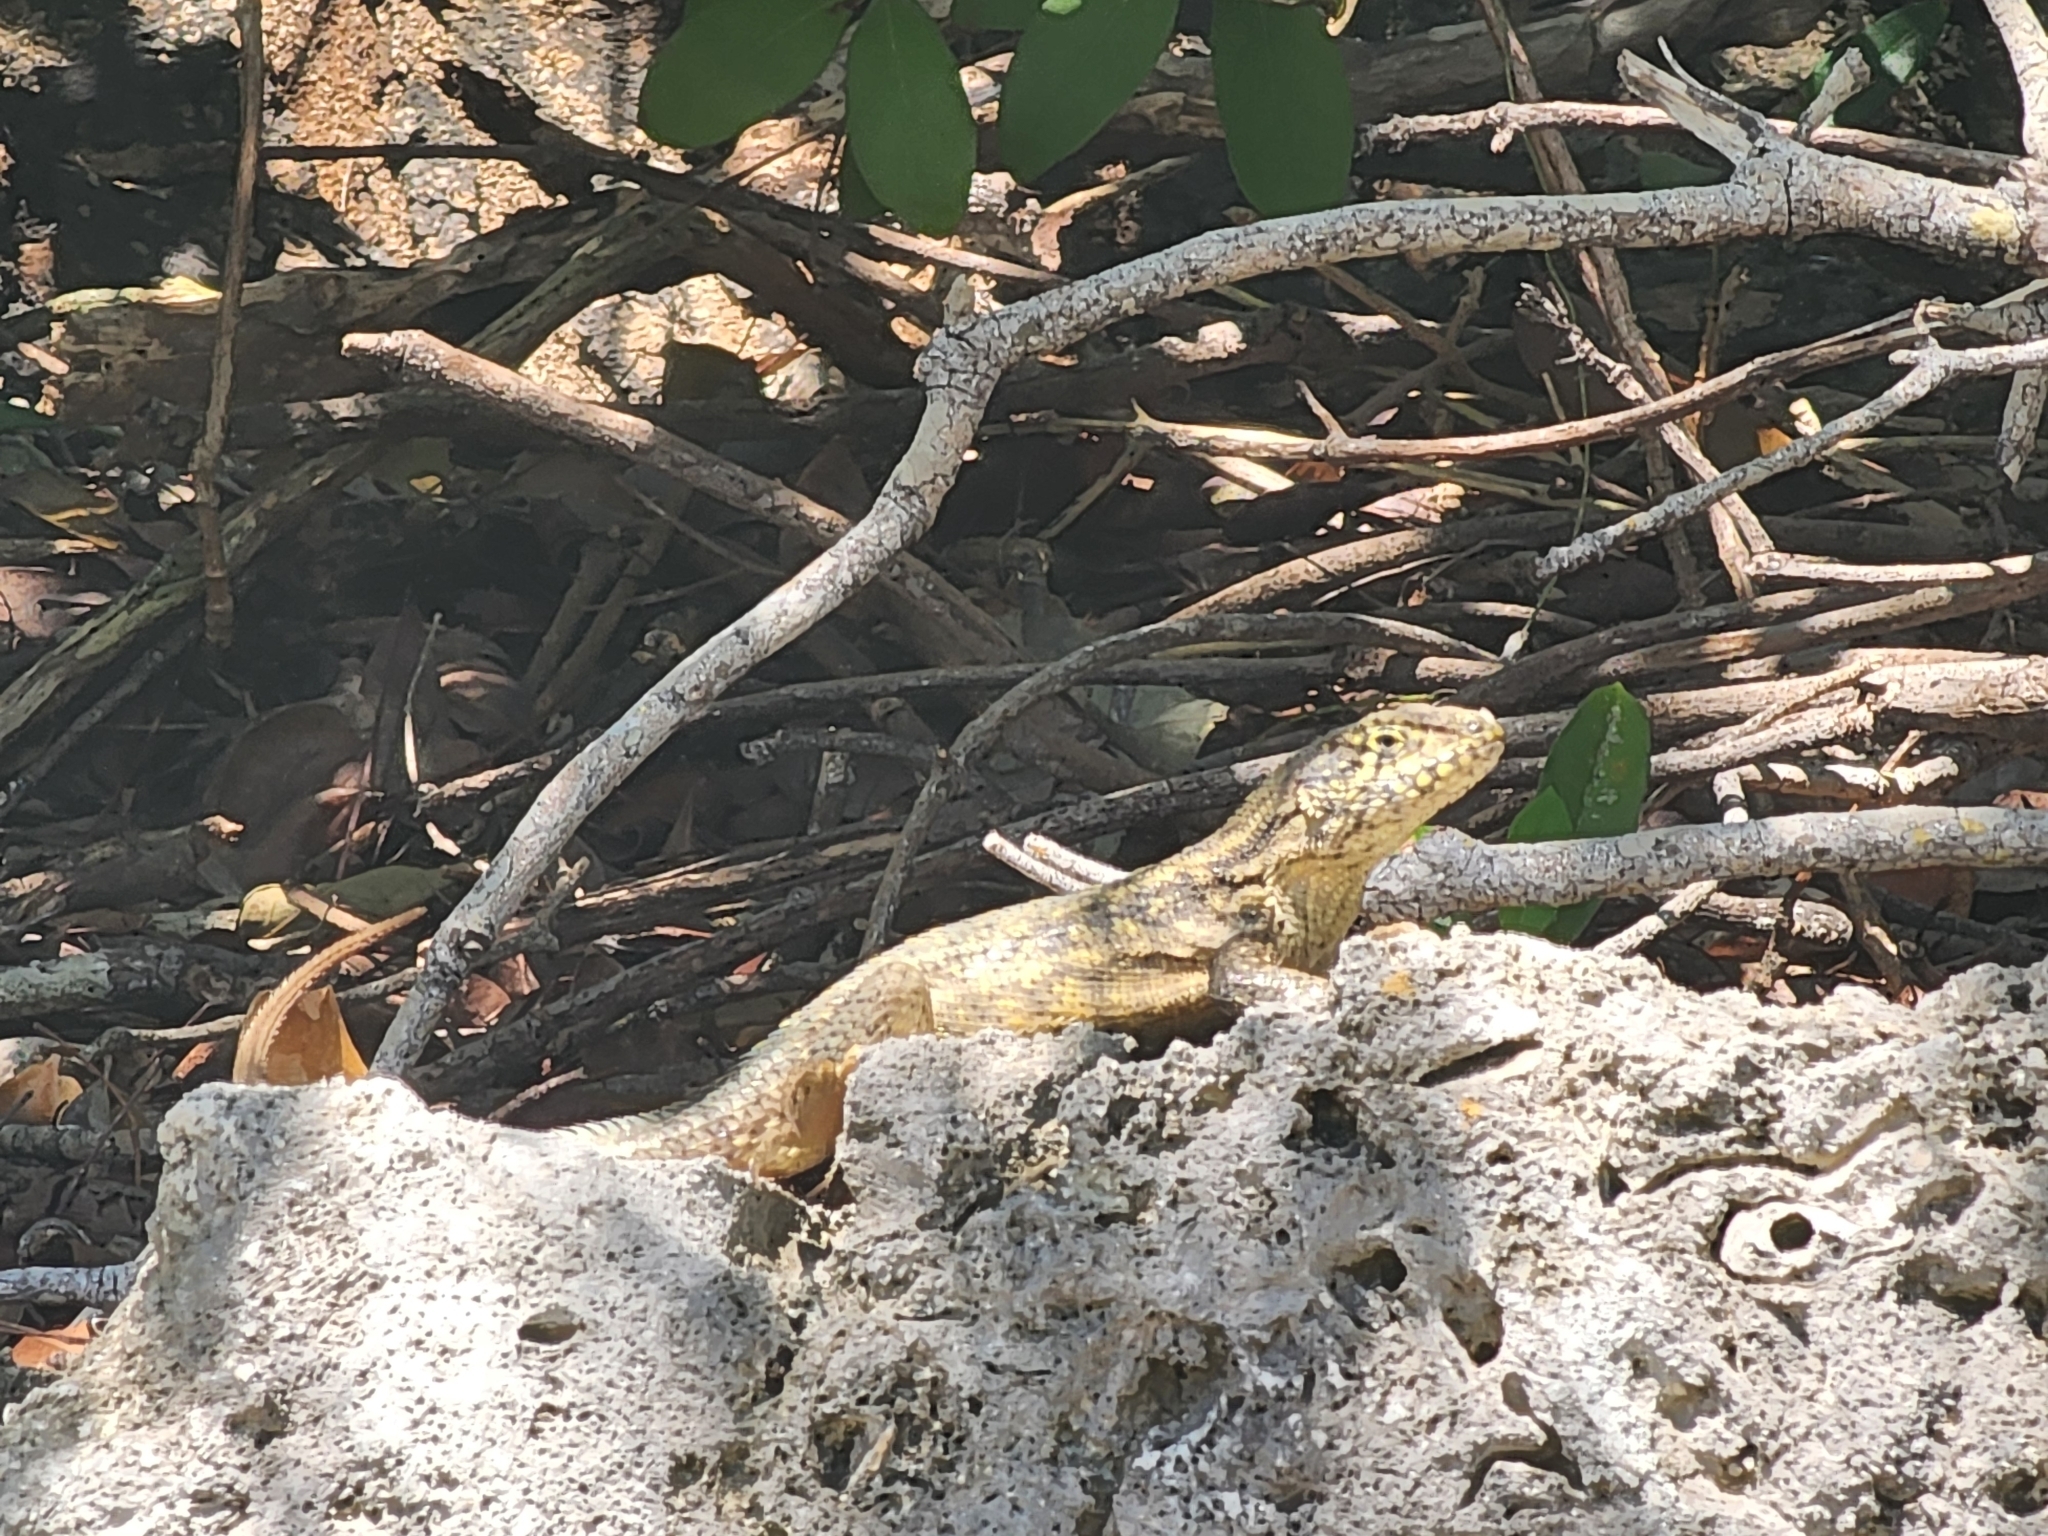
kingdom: Animalia
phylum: Chordata
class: Squamata
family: Leiocephalidae
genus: Leiocephalus
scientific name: Leiocephalus carinatus
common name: Northern curly-tailed lizard
